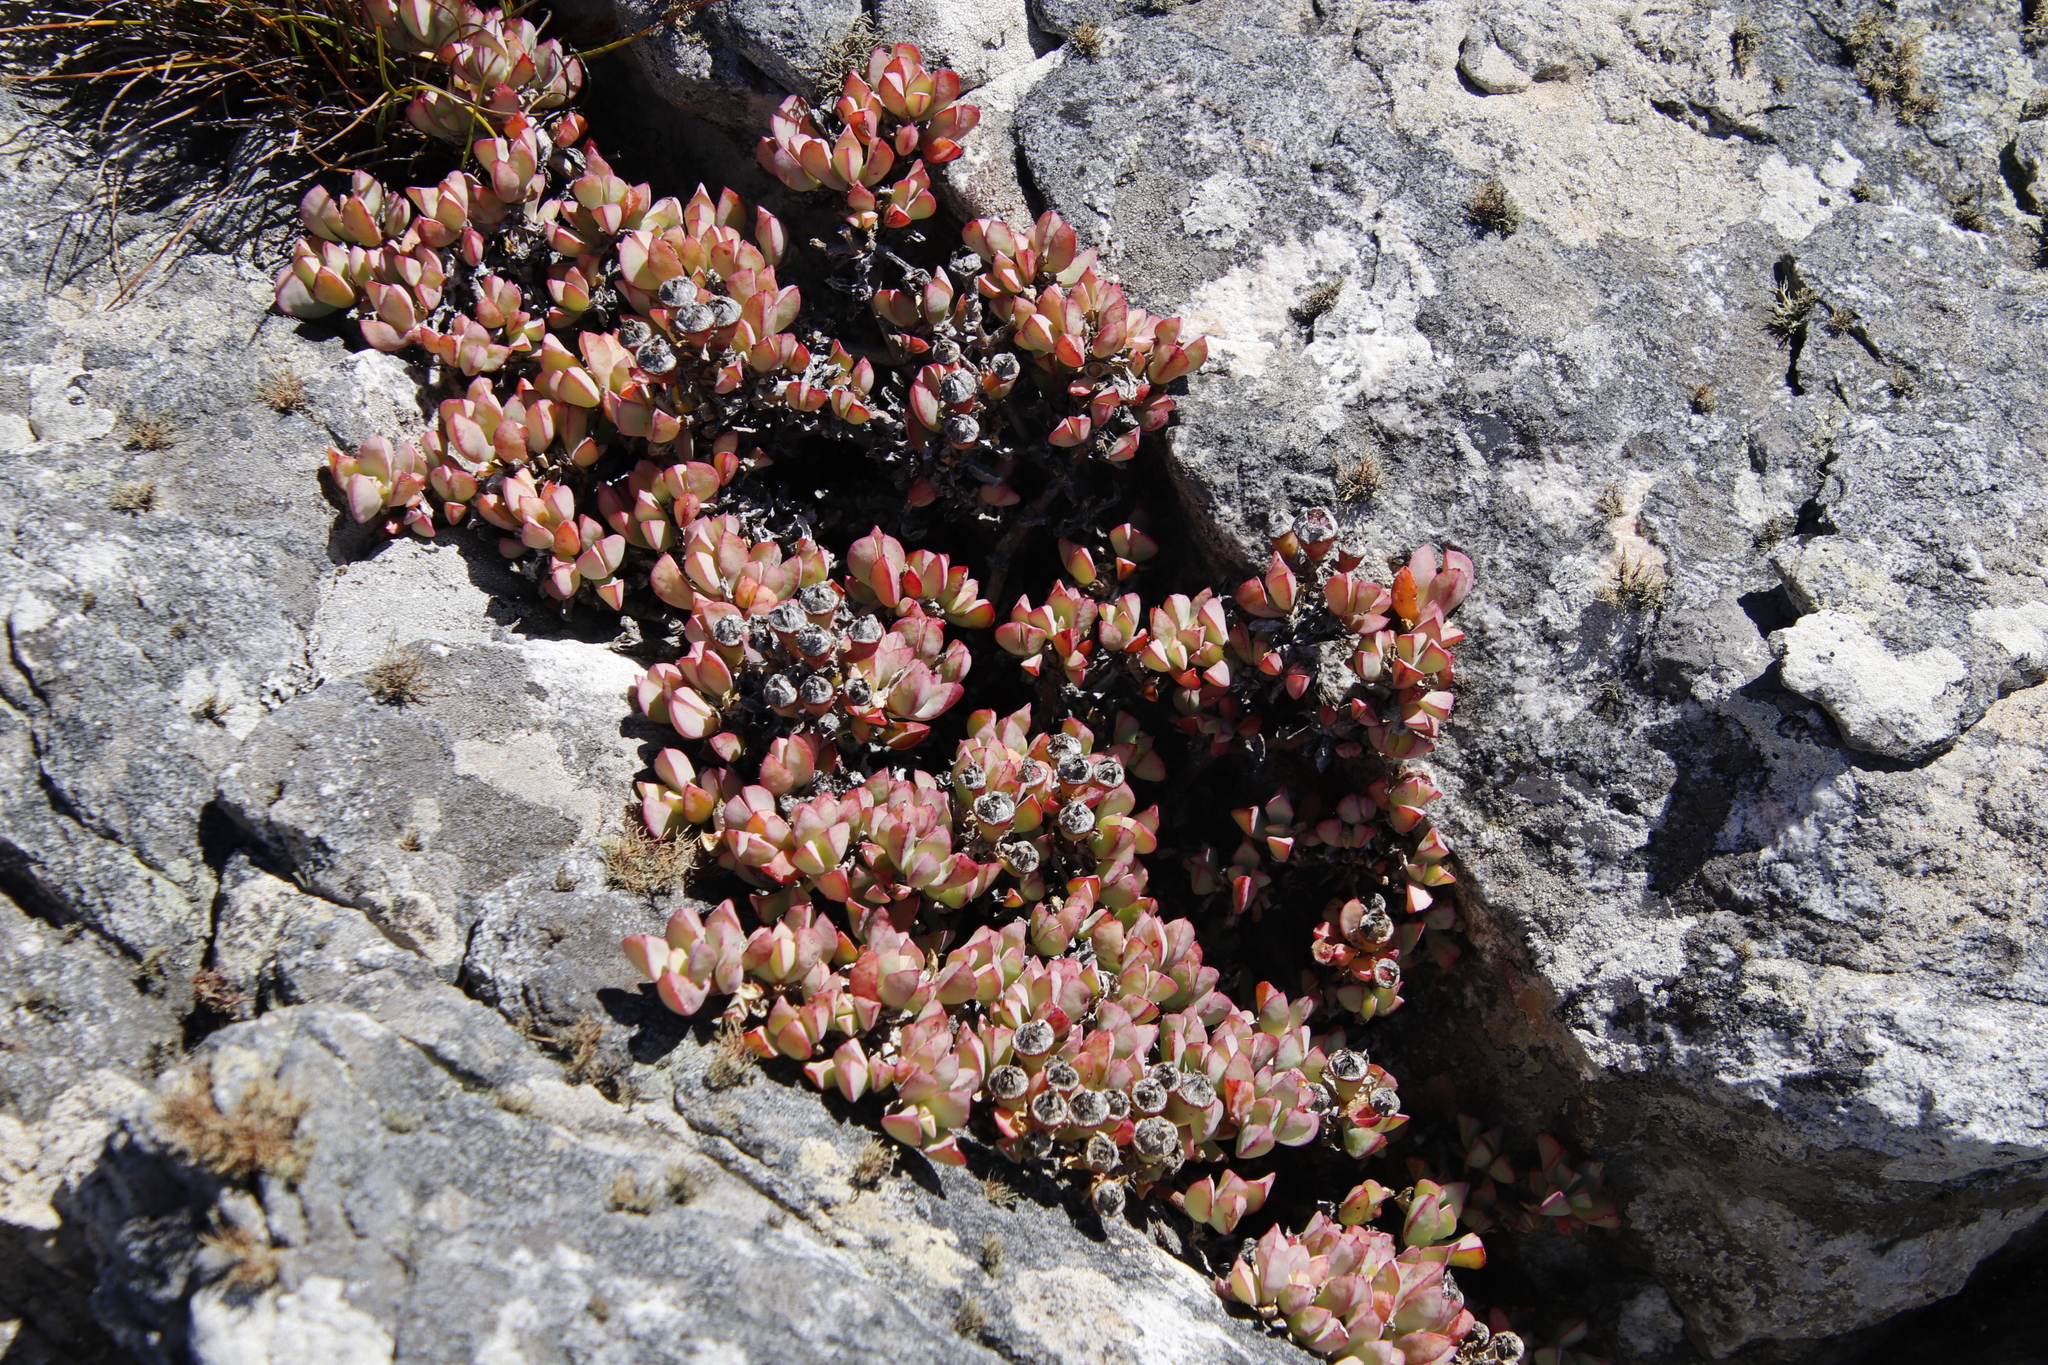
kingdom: Plantae
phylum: Tracheophyta
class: Magnoliopsida
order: Caryophyllales
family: Aizoaceae
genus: Oscularia
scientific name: Oscularia caulescens
